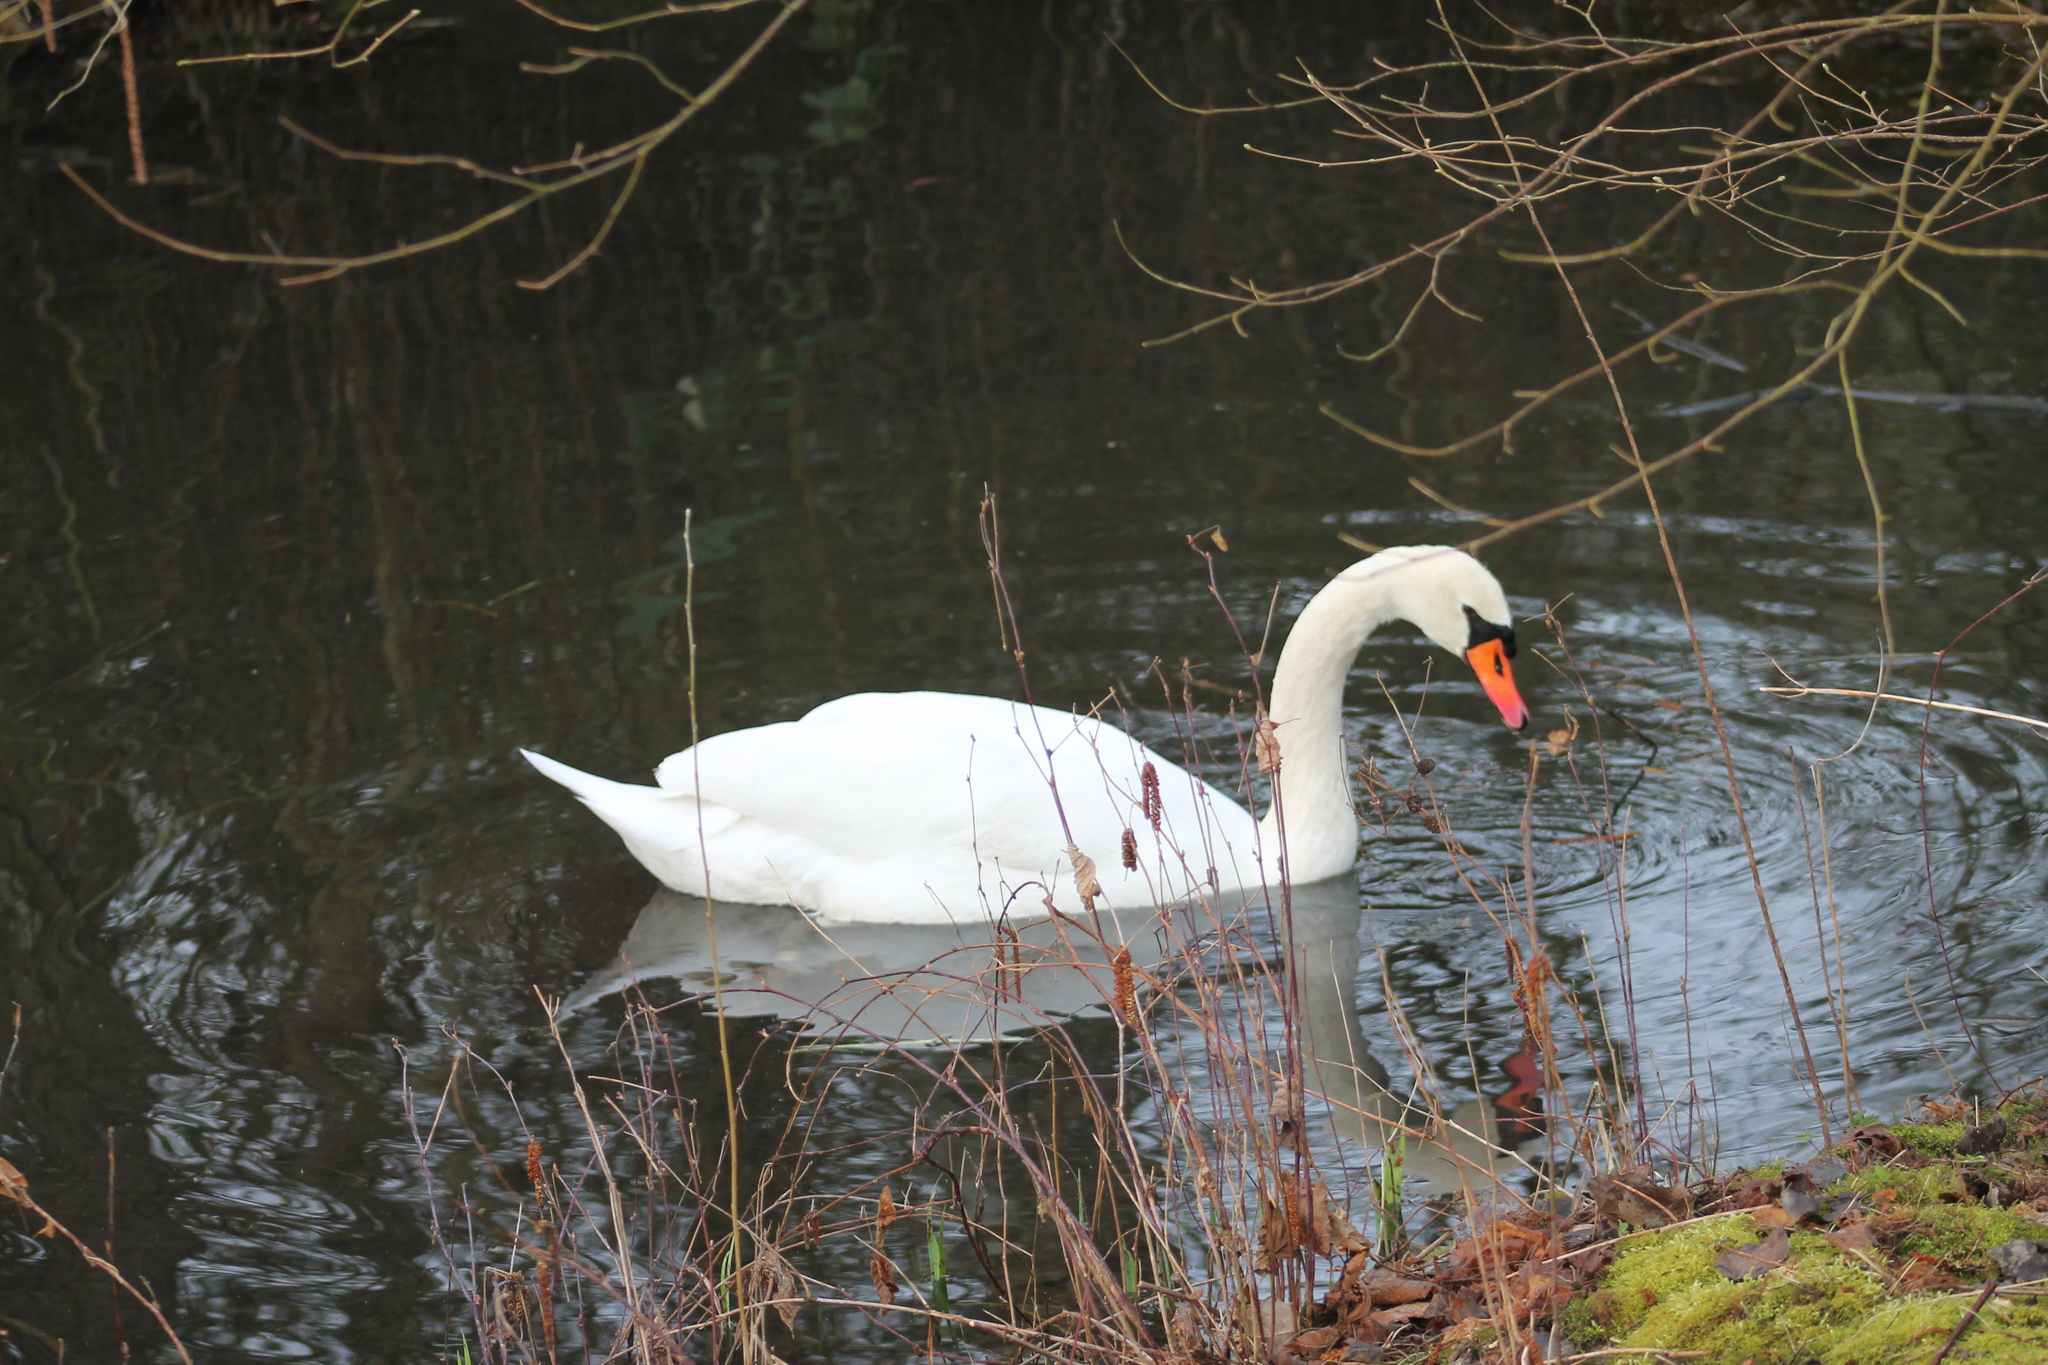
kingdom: Animalia
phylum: Chordata
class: Aves
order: Anseriformes
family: Anatidae
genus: Cygnus
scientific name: Cygnus olor
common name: Mute swan
